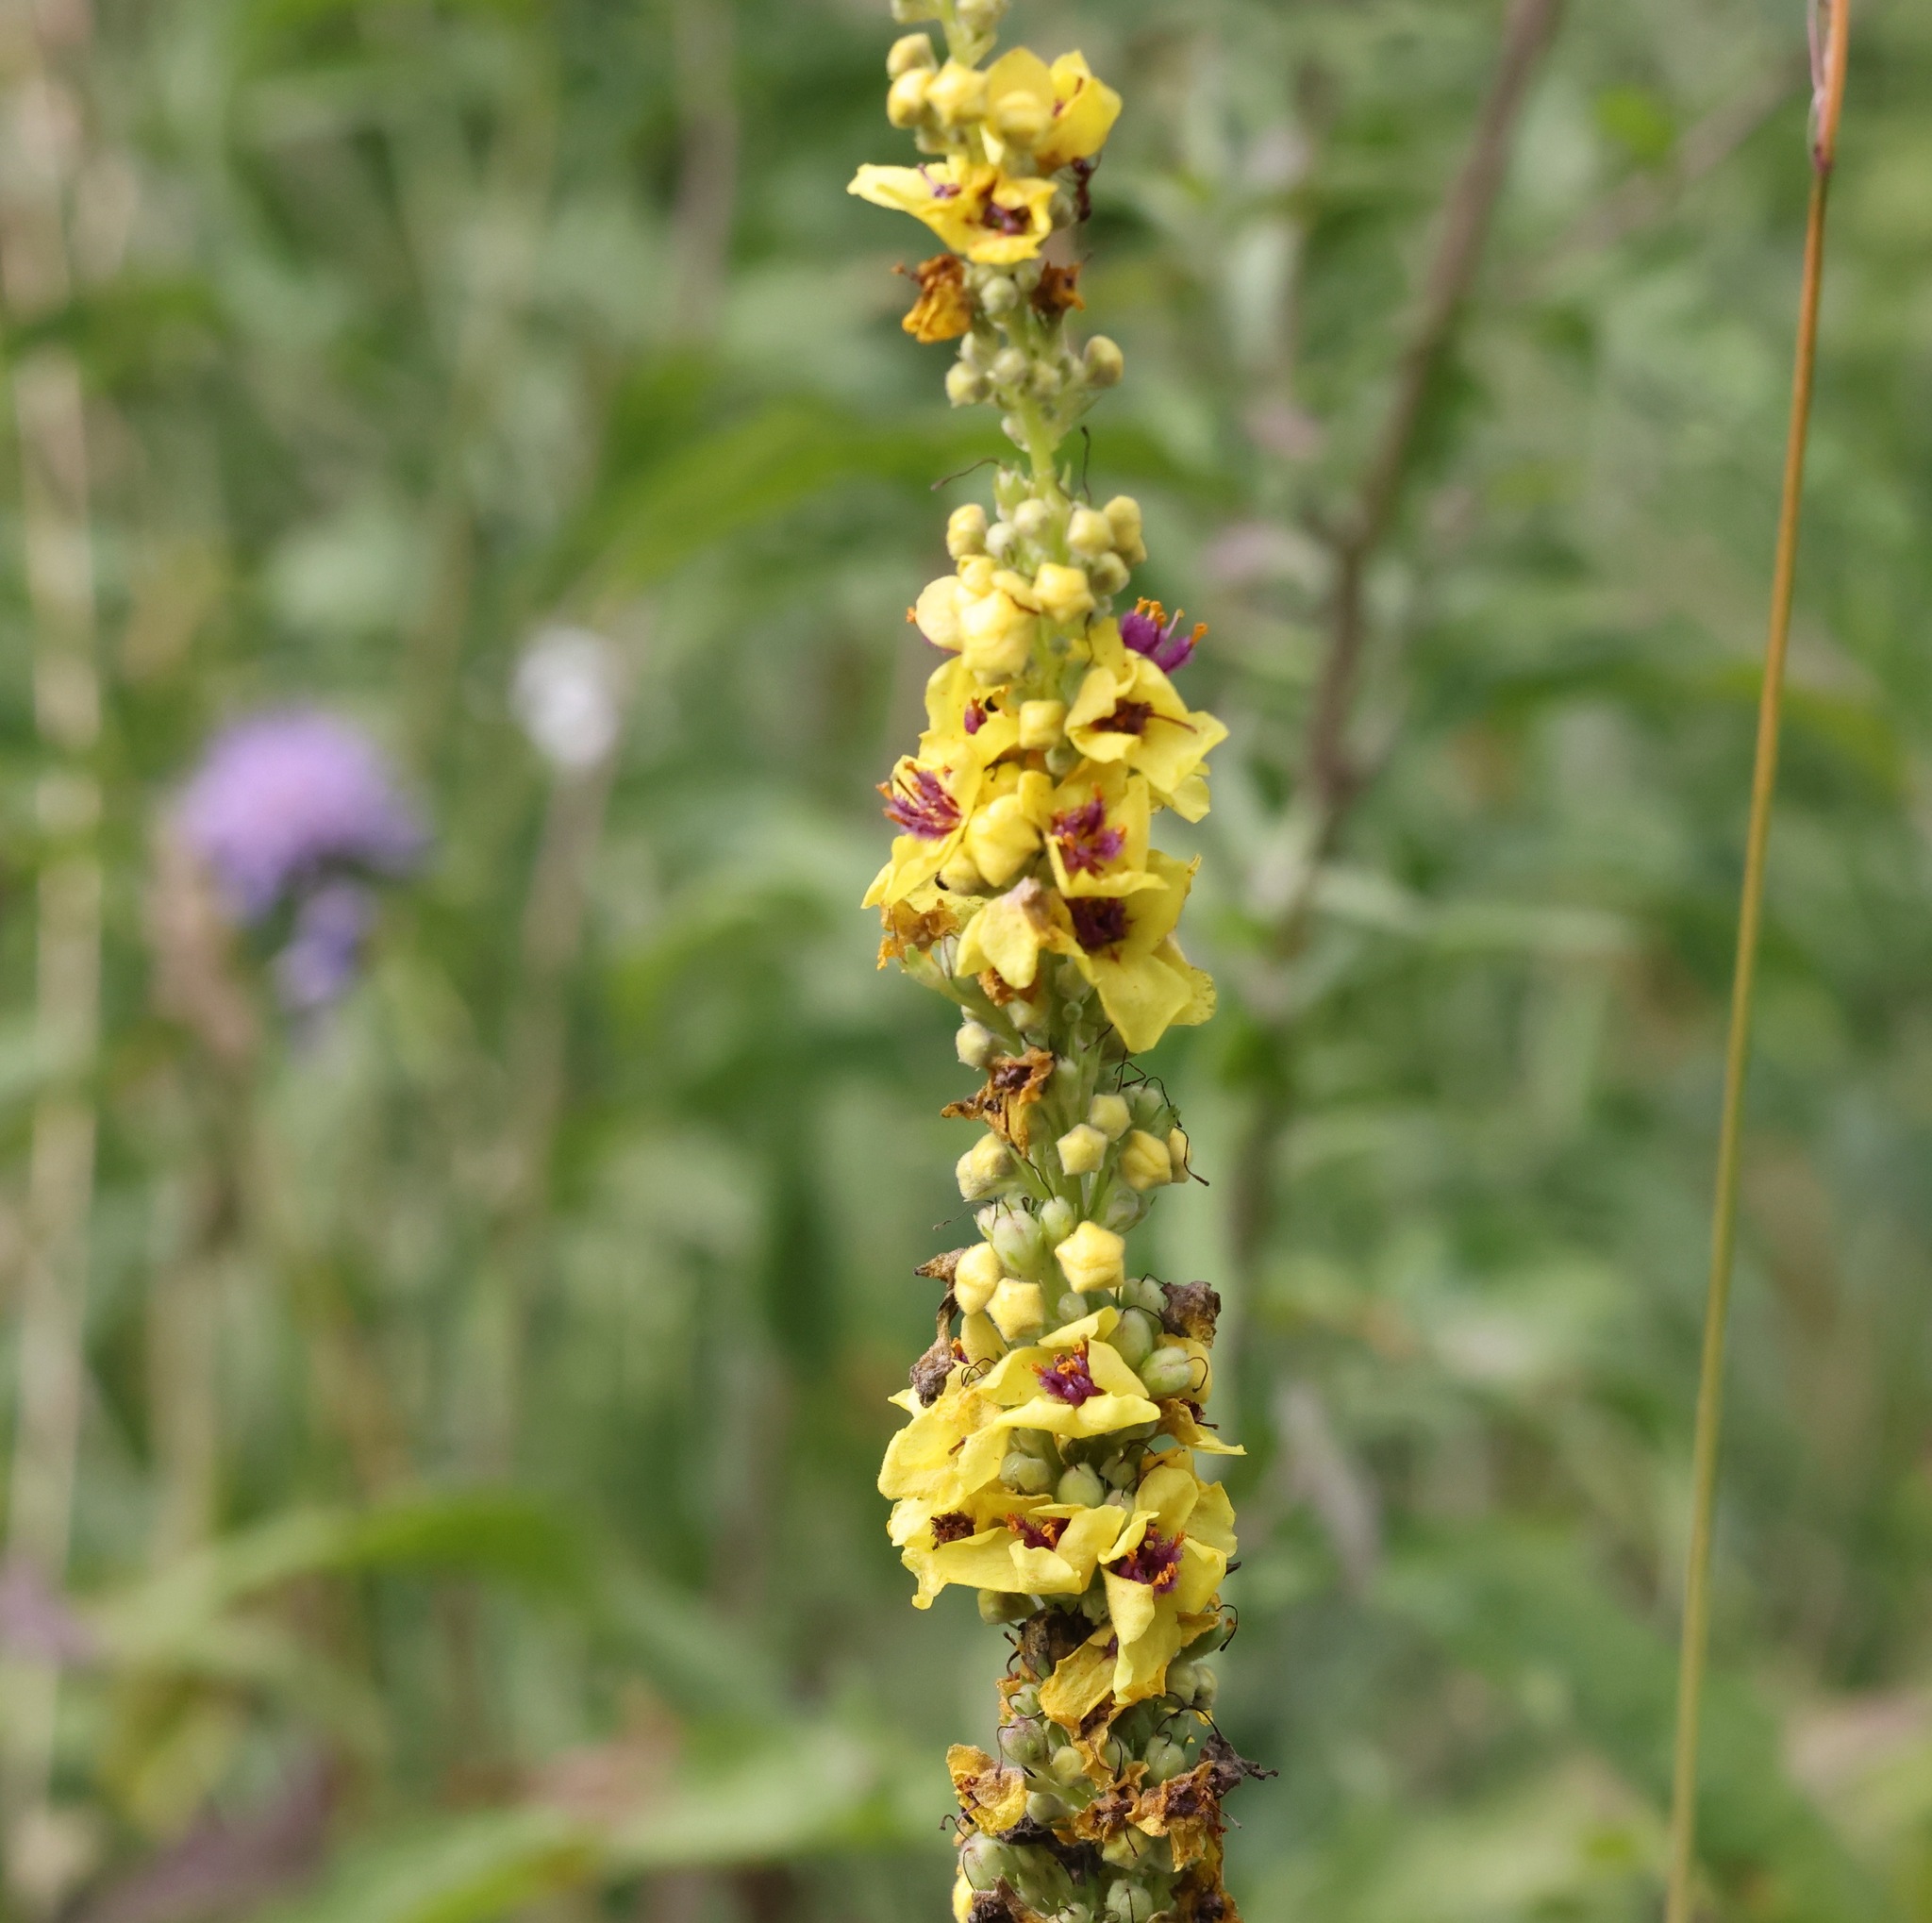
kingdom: Plantae
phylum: Tracheophyta
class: Magnoliopsida
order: Lamiales
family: Scrophulariaceae
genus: Verbascum
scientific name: Verbascum nigrum
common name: Dark mullein
